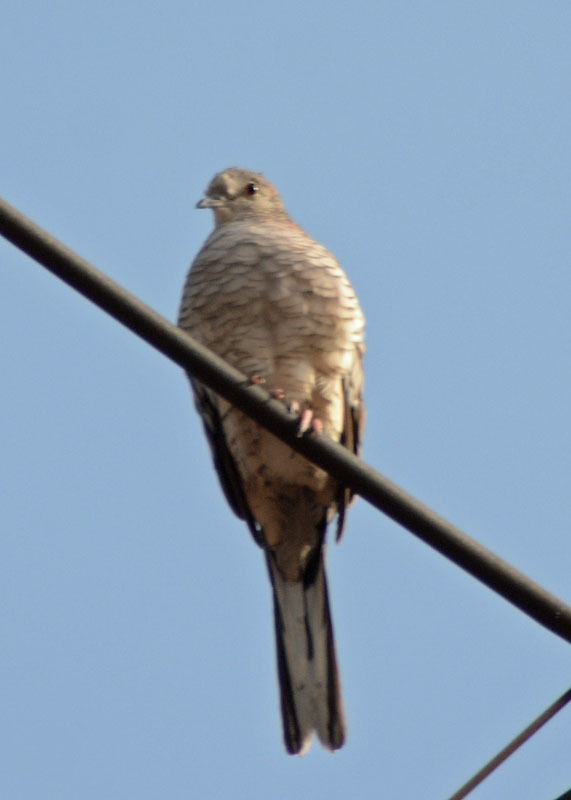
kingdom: Animalia
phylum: Chordata
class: Aves
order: Columbiformes
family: Columbidae
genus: Columbina
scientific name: Columbina inca
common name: Inca dove
